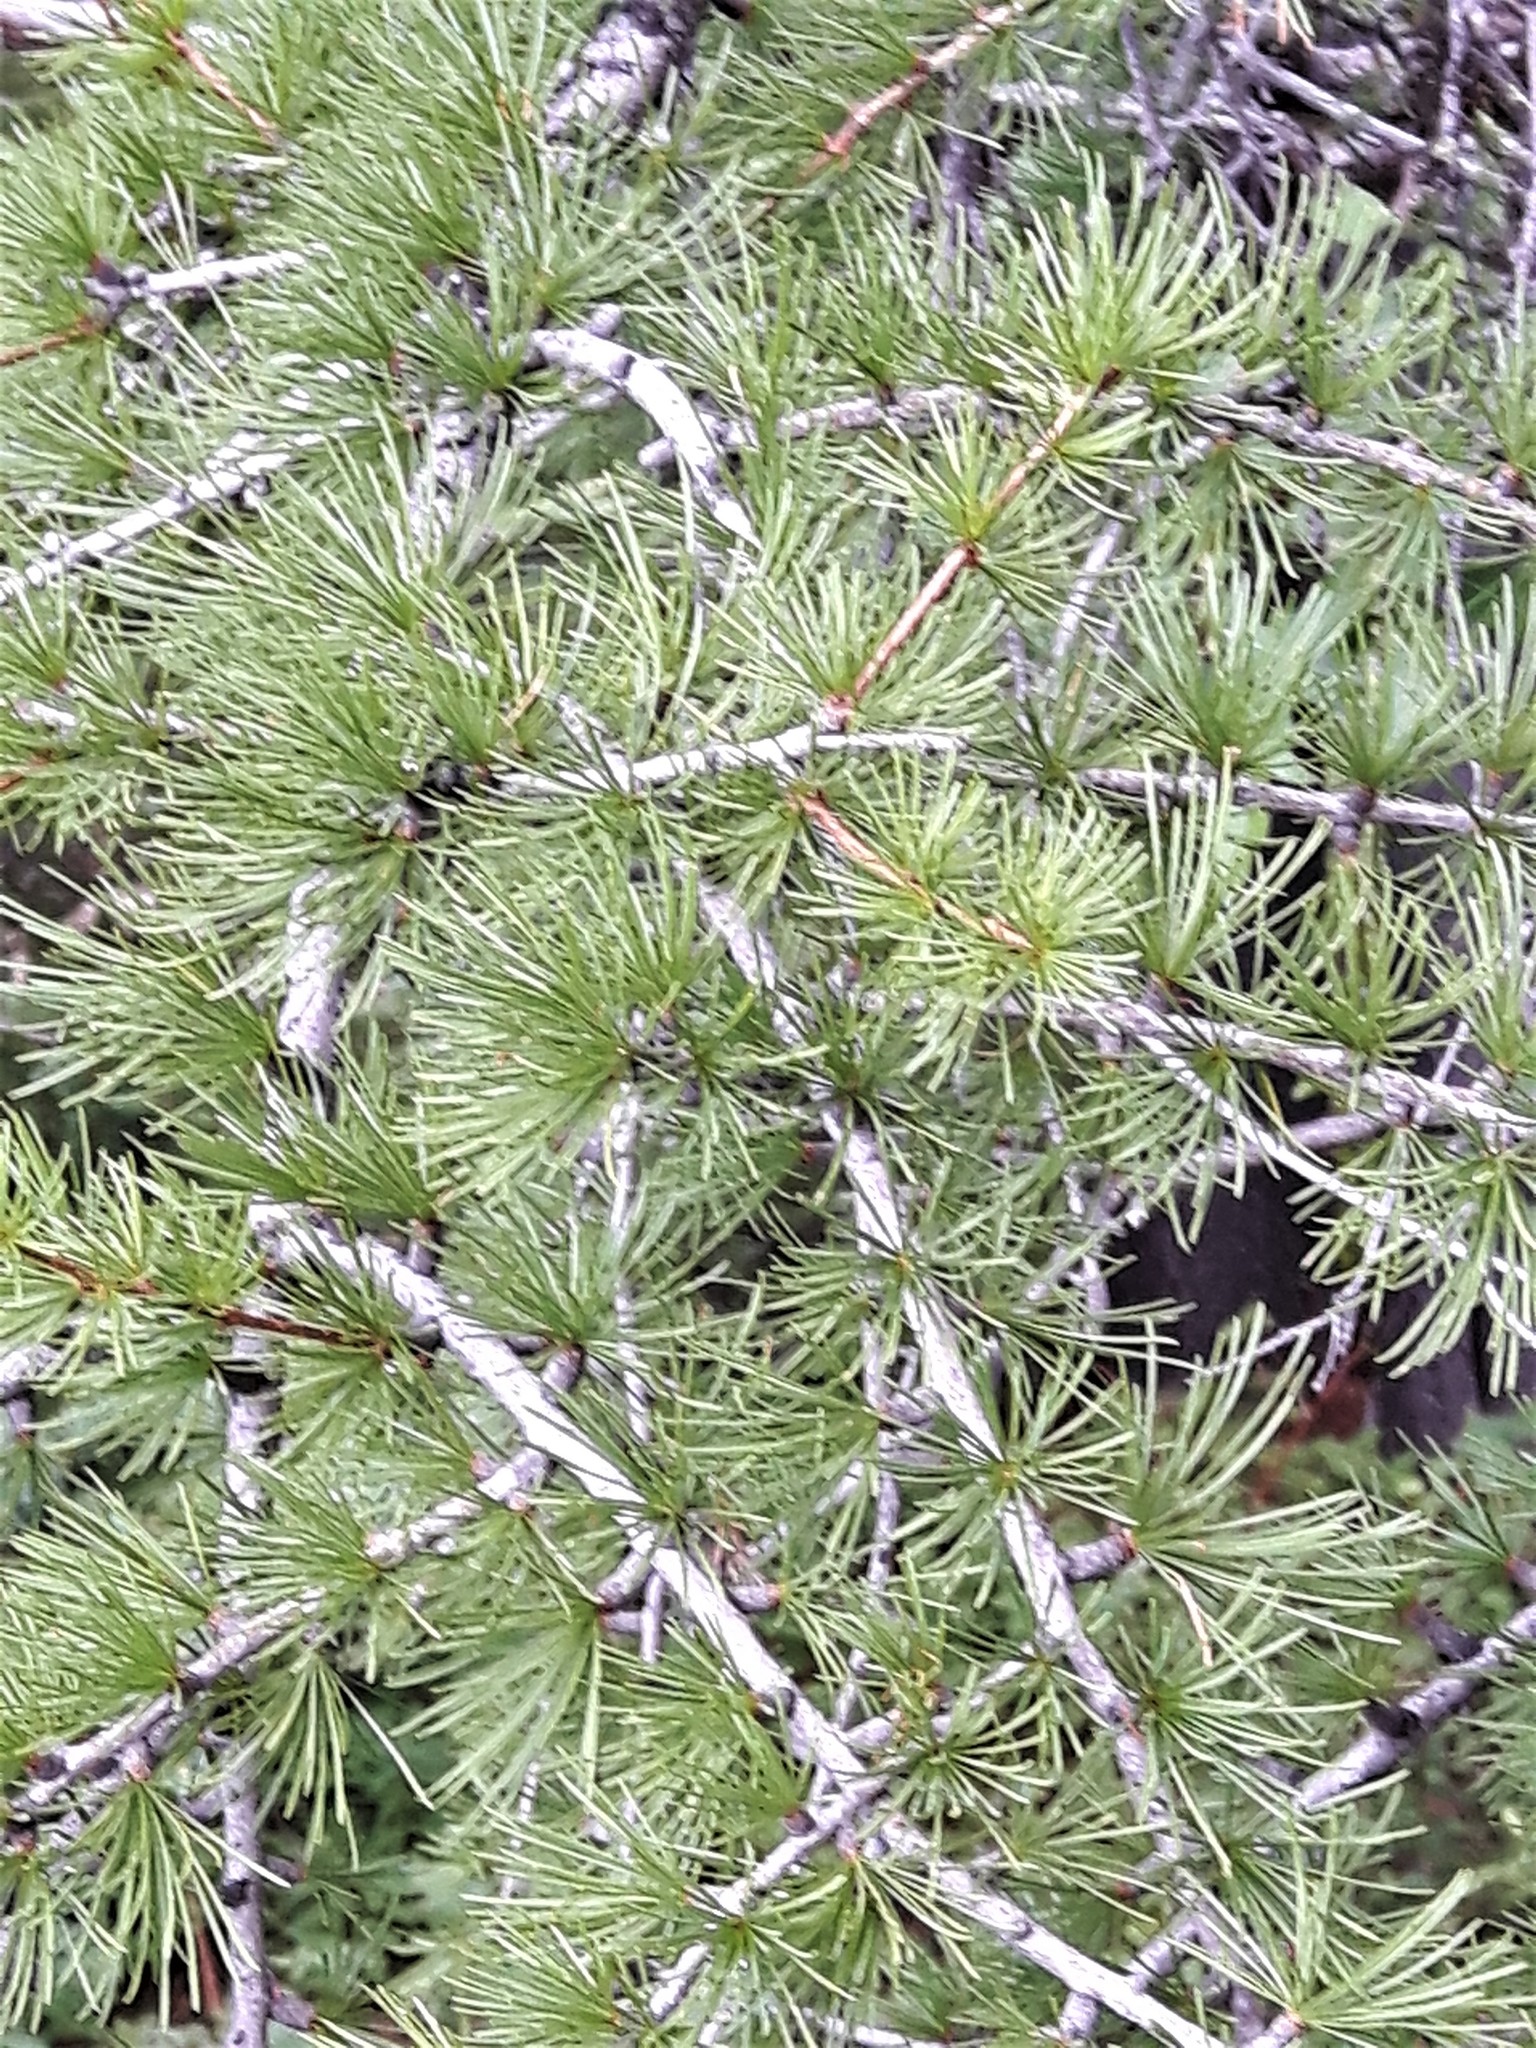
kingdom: Plantae
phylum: Tracheophyta
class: Pinopsida
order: Pinales
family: Pinaceae
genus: Larix
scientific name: Larix occidentalis
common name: Western larch
